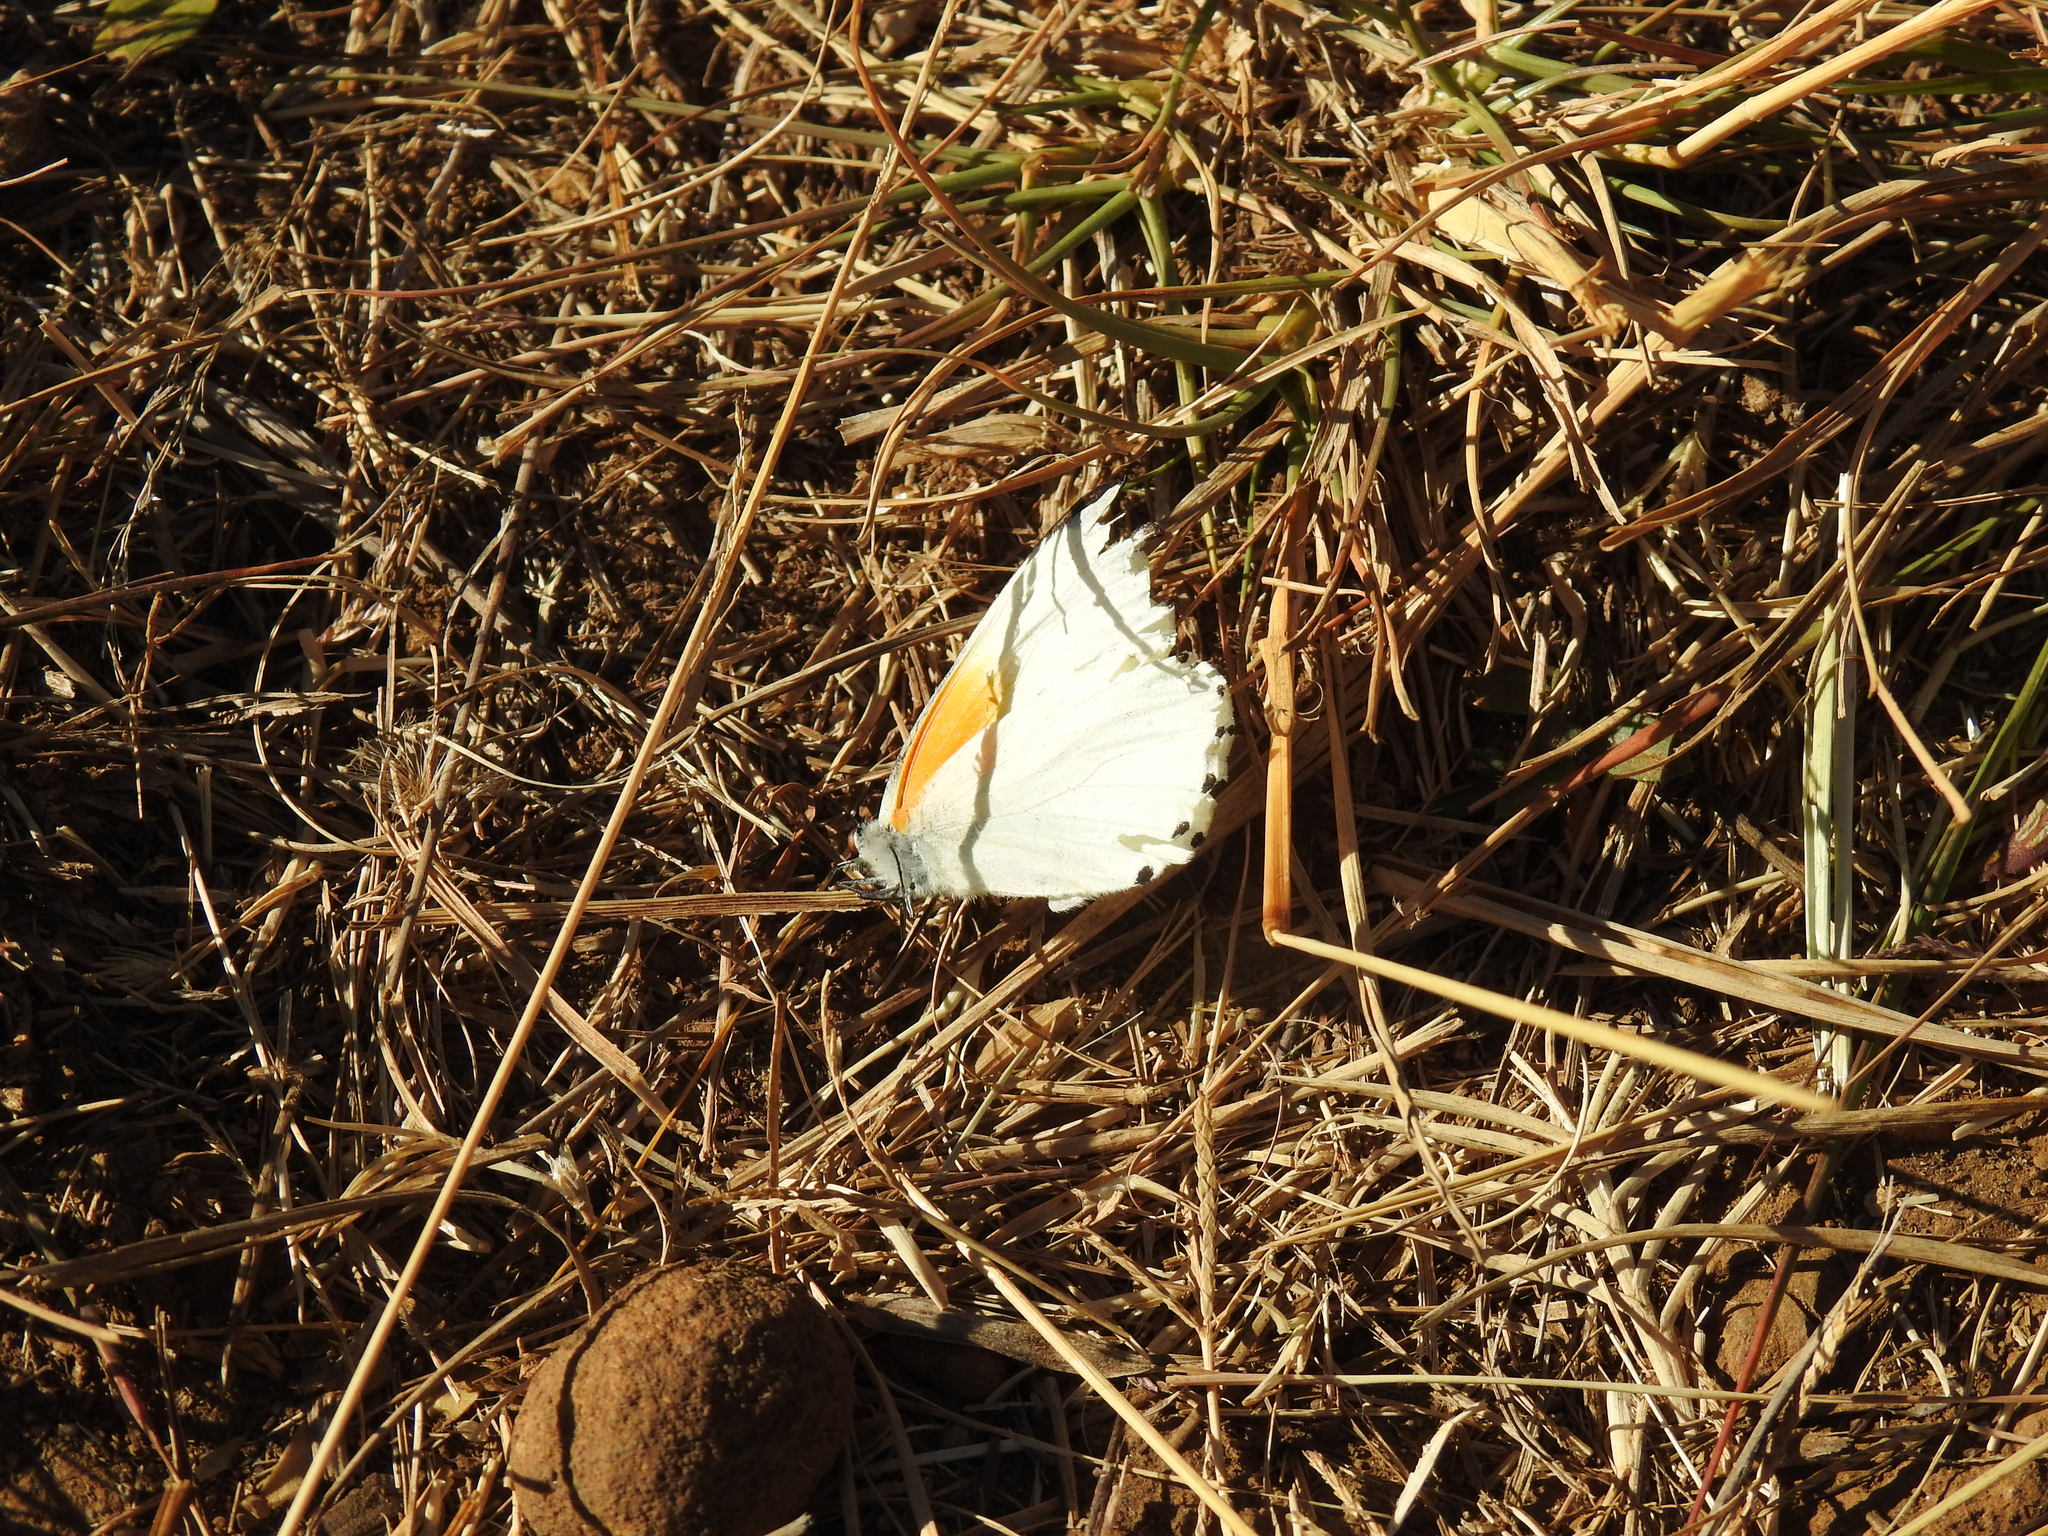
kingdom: Animalia
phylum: Arthropoda
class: Insecta
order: Lepidoptera
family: Pieridae
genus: Mylothris
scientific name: Mylothris rueppellii
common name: Twin dotted border
